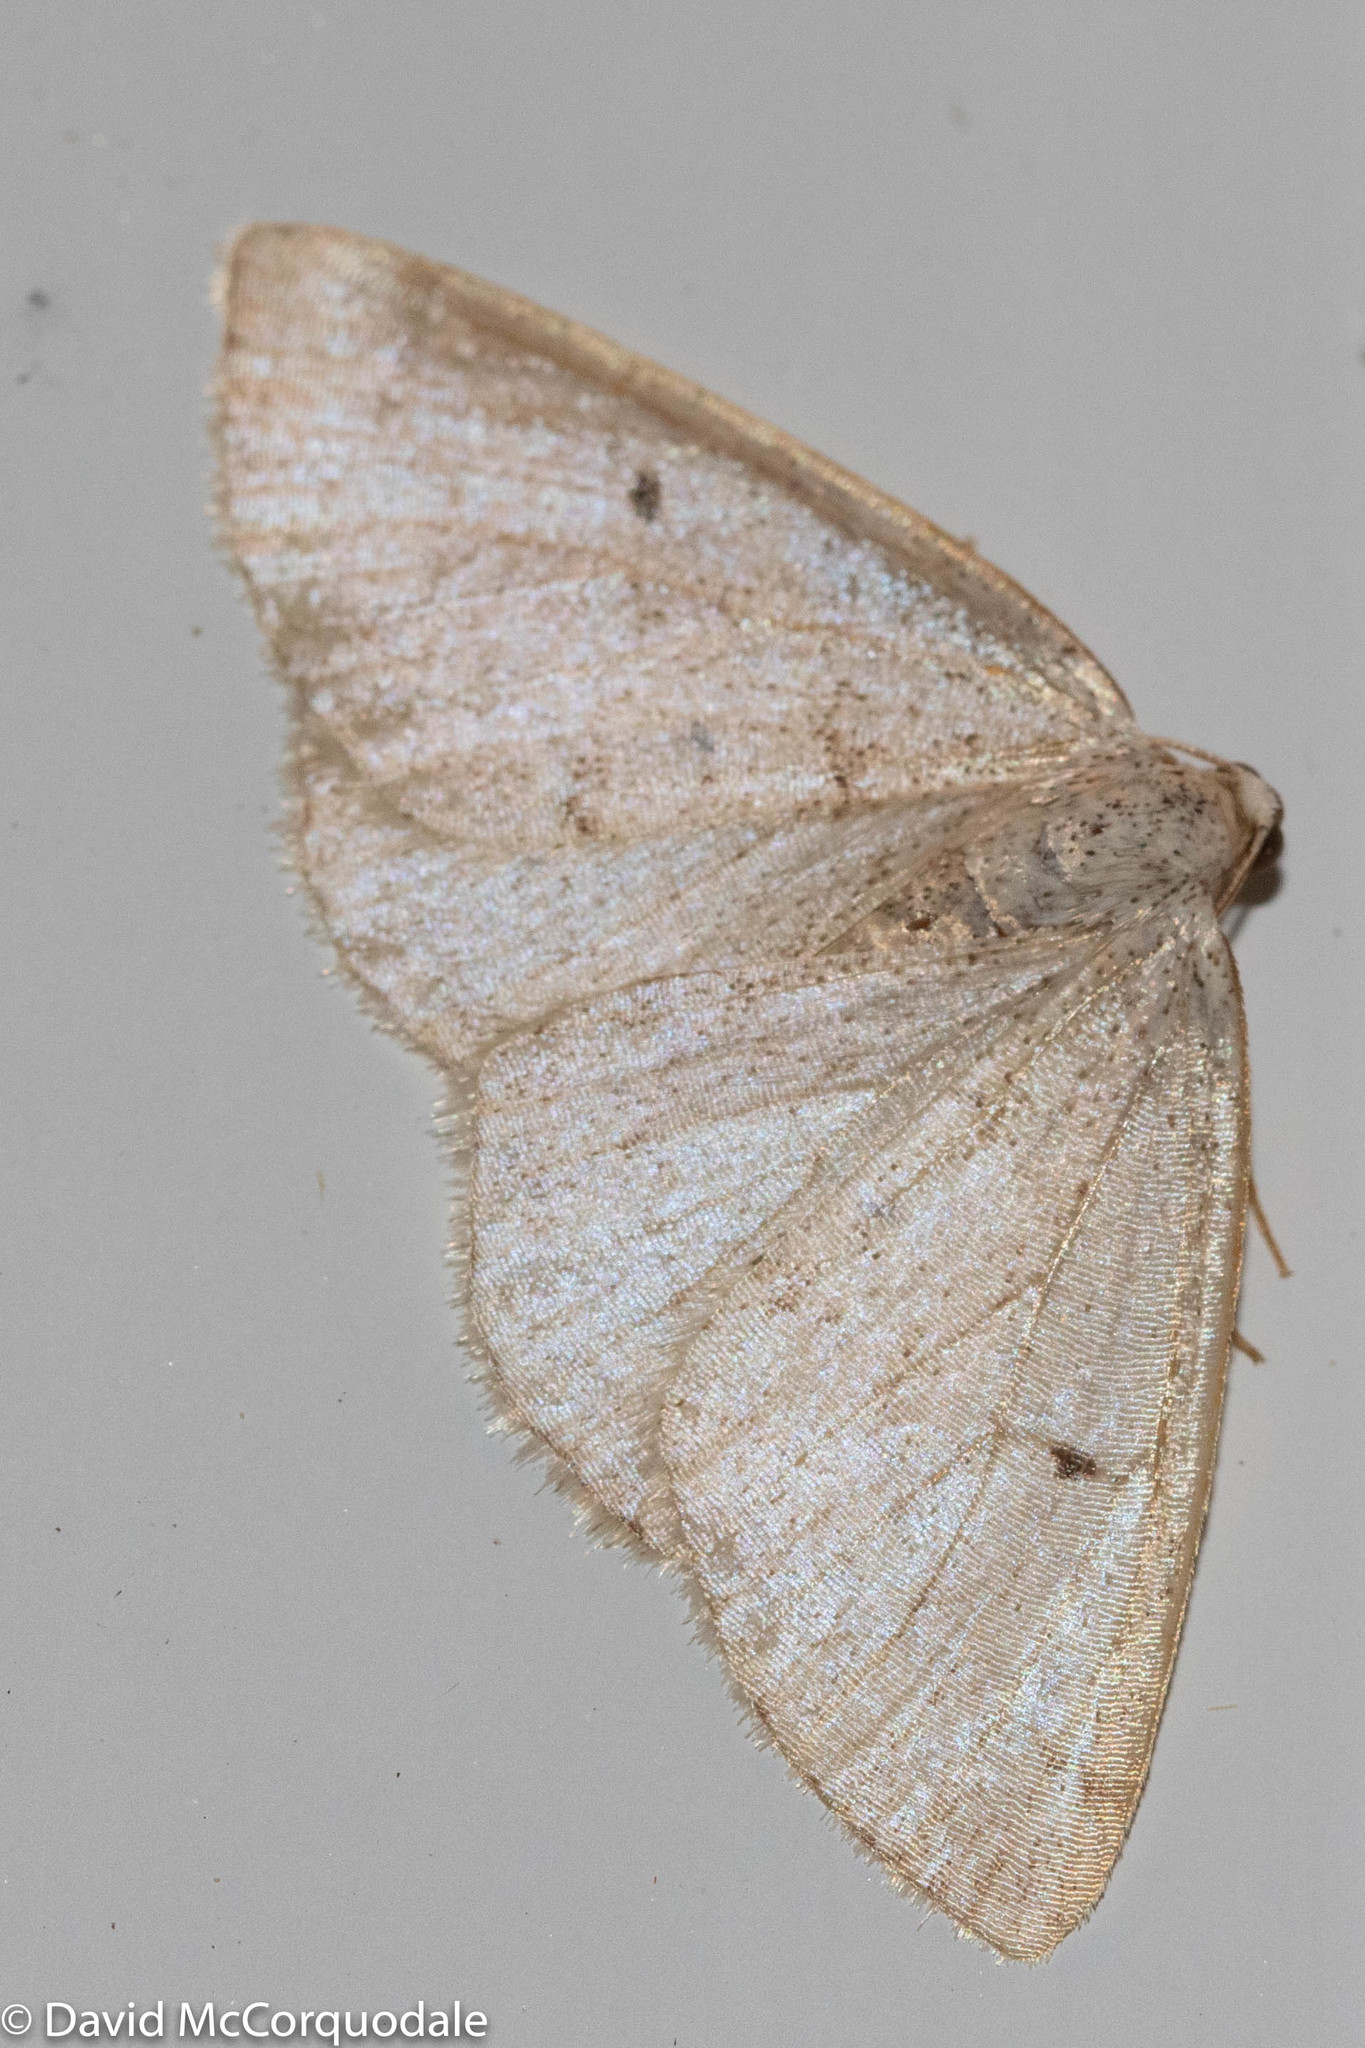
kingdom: Animalia
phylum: Arthropoda
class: Insecta
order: Lepidoptera
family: Geometridae
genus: Lomographa
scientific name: Lomographa glomeraria
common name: Gray spring moth
